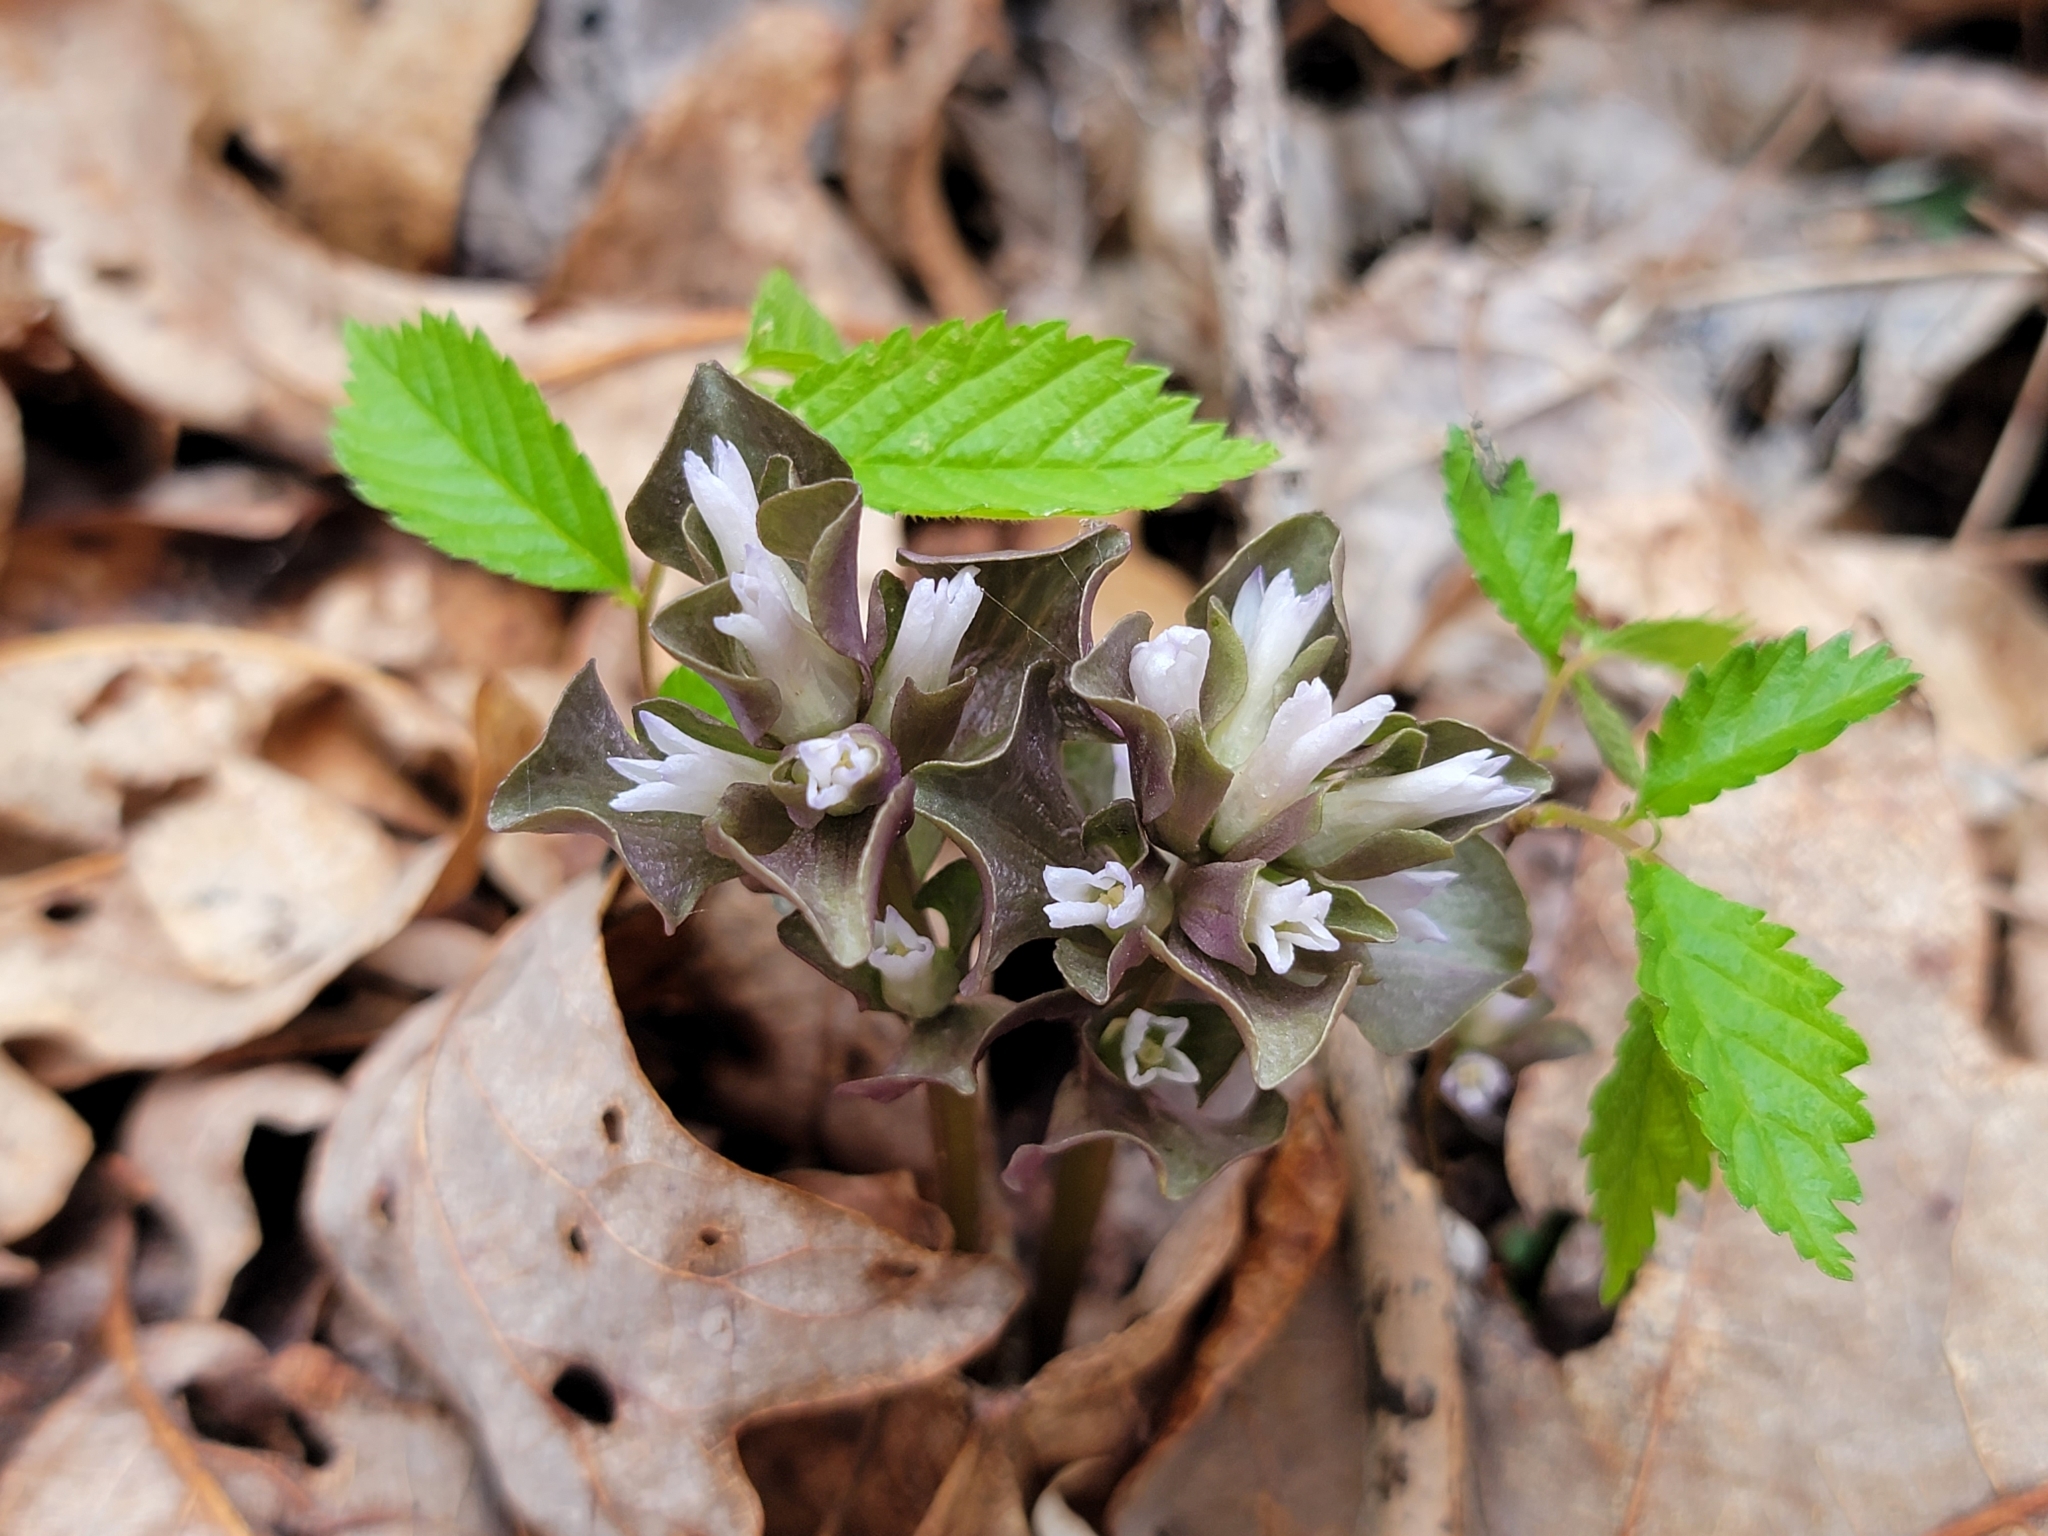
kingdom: Plantae
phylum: Tracheophyta
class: Magnoliopsida
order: Gentianales
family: Gentianaceae
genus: Obolaria
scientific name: Obolaria virginica
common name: Pennywort
